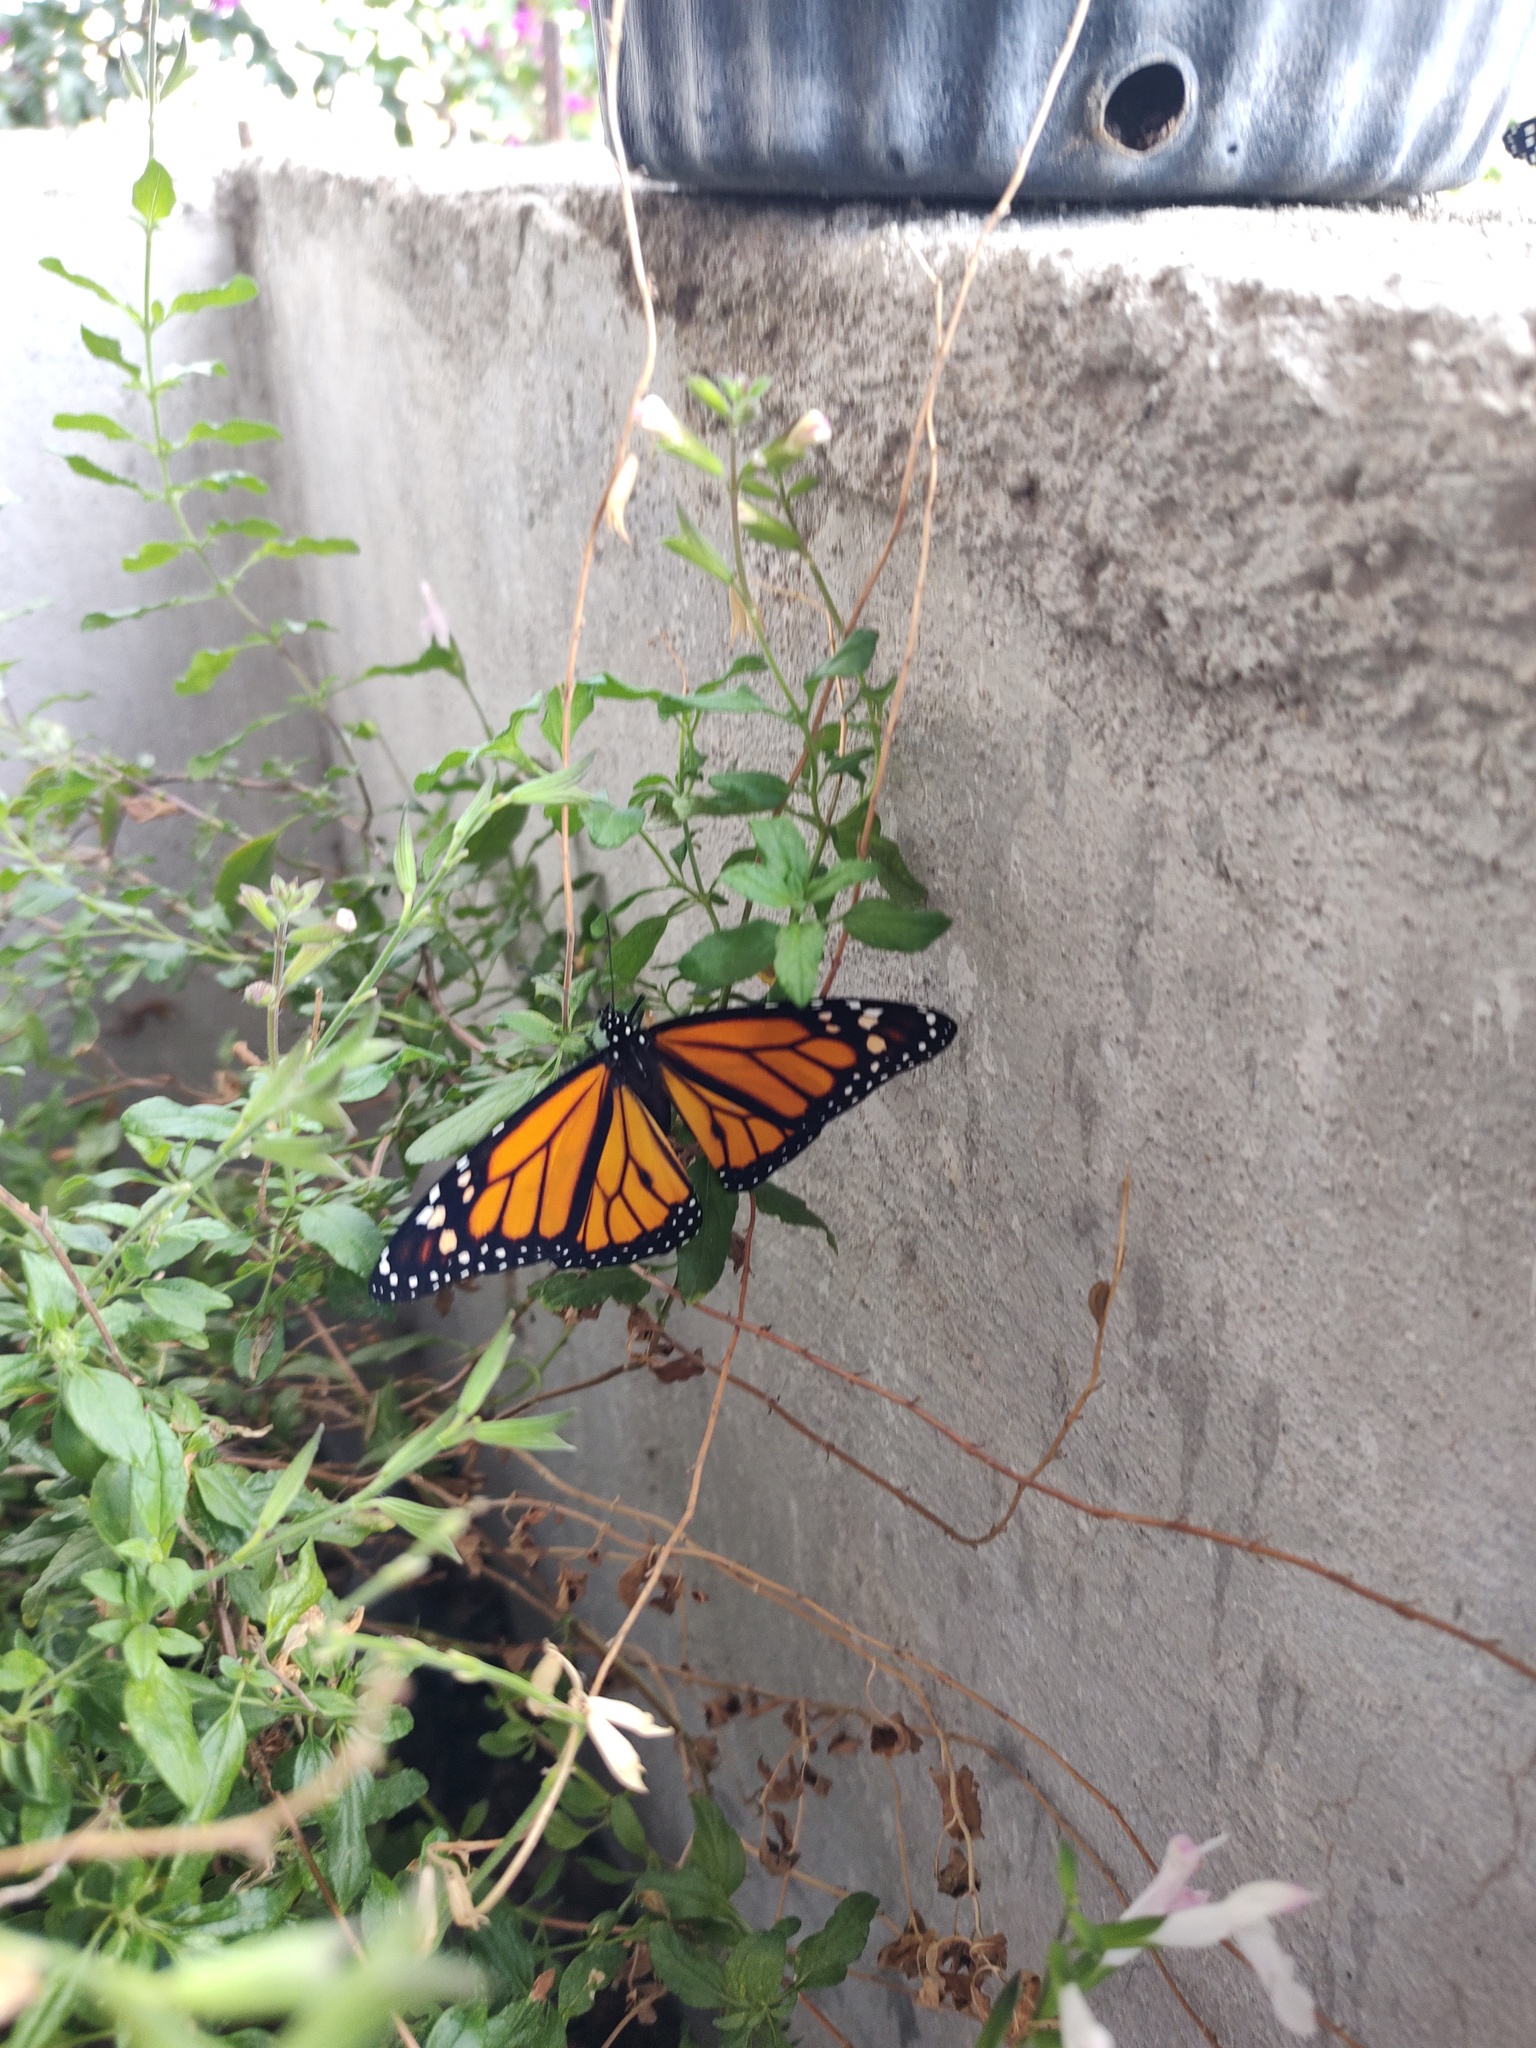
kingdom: Animalia
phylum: Arthropoda
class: Insecta
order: Lepidoptera
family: Nymphalidae
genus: Danaus
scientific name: Danaus plexippus
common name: Monarch
